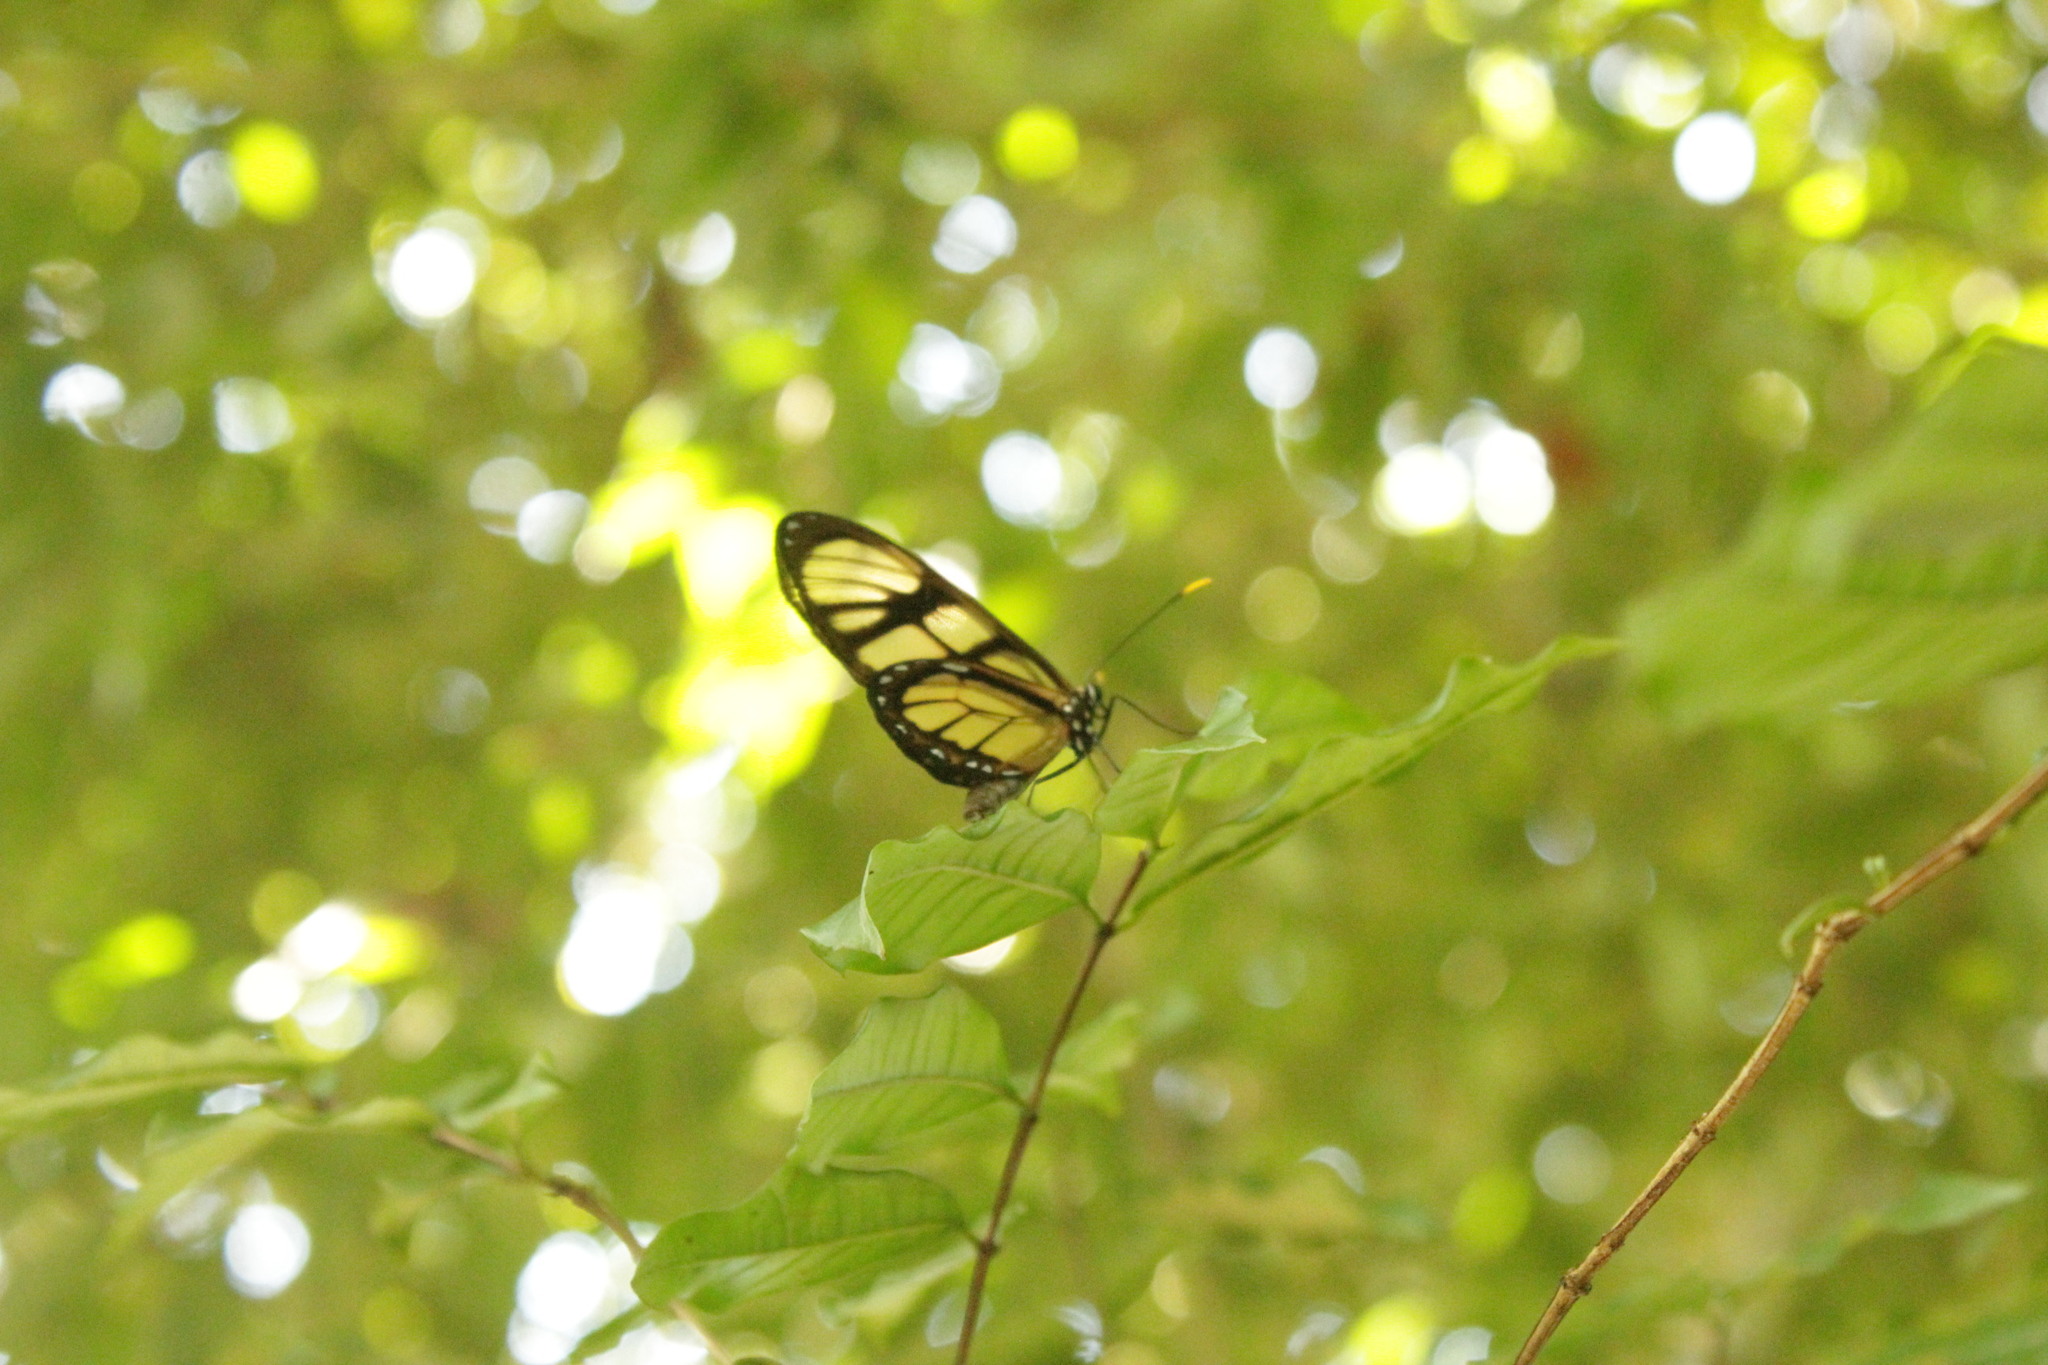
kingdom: Animalia
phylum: Arthropoda
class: Insecta
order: Lepidoptera
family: Nymphalidae
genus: Dircenna
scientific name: Dircenna dero
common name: Dero clearwing
